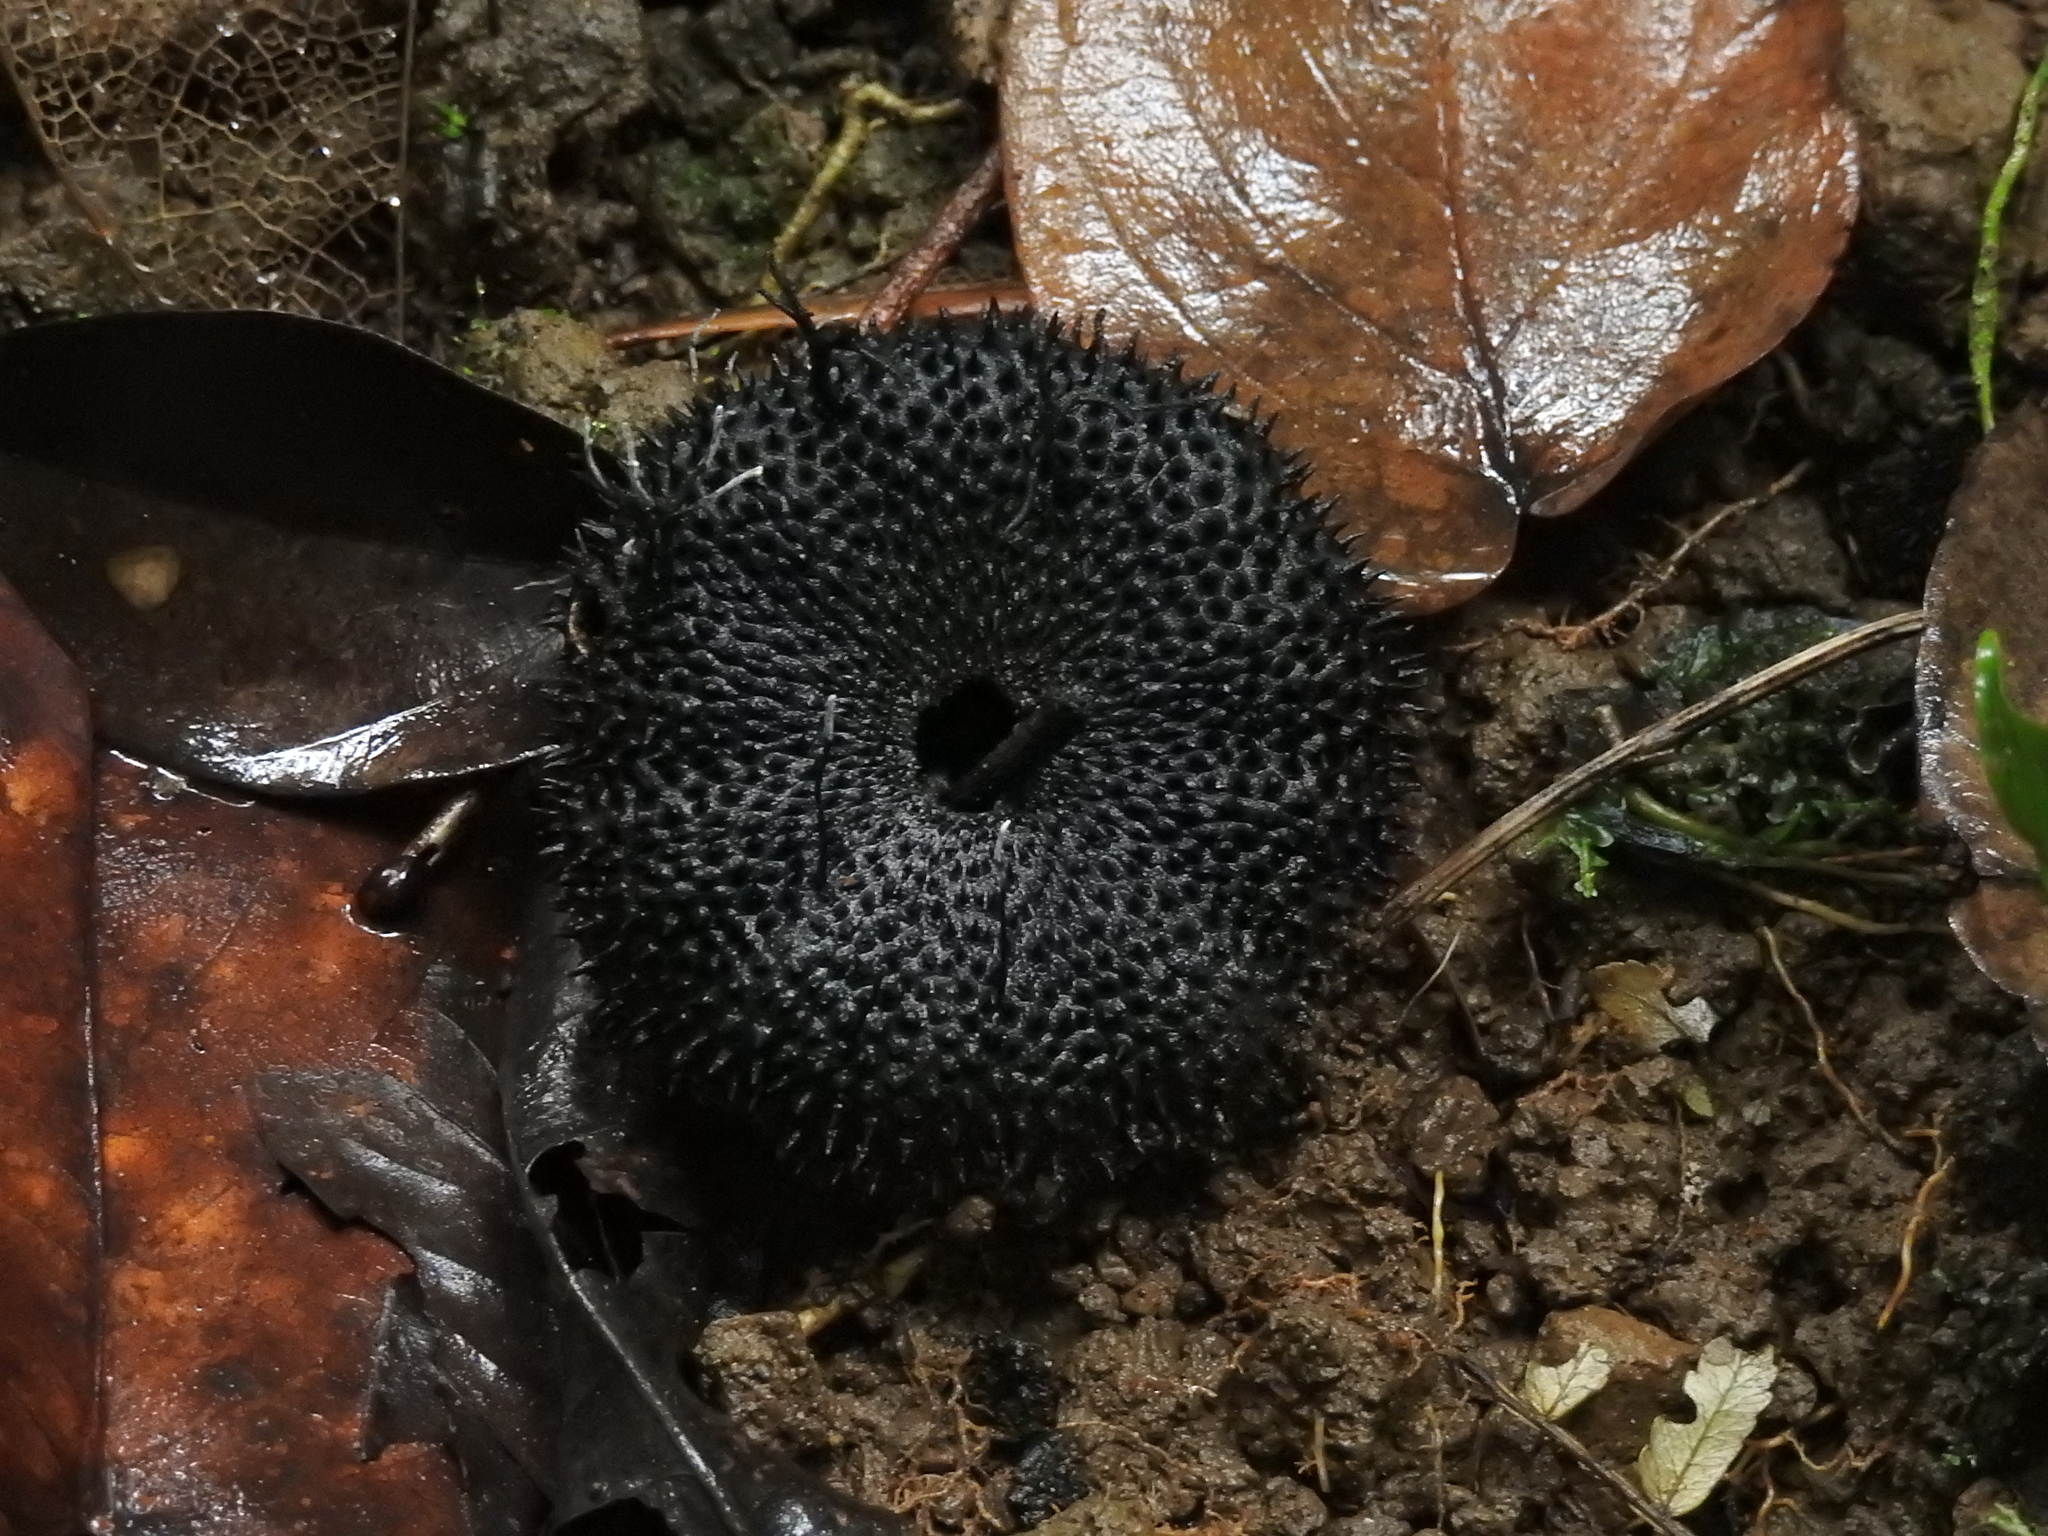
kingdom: Plantae
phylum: Tracheophyta
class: Magnoliopsida
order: Malvales
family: Malvaceae
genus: Apeiba
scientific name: Apeiba membranacea
